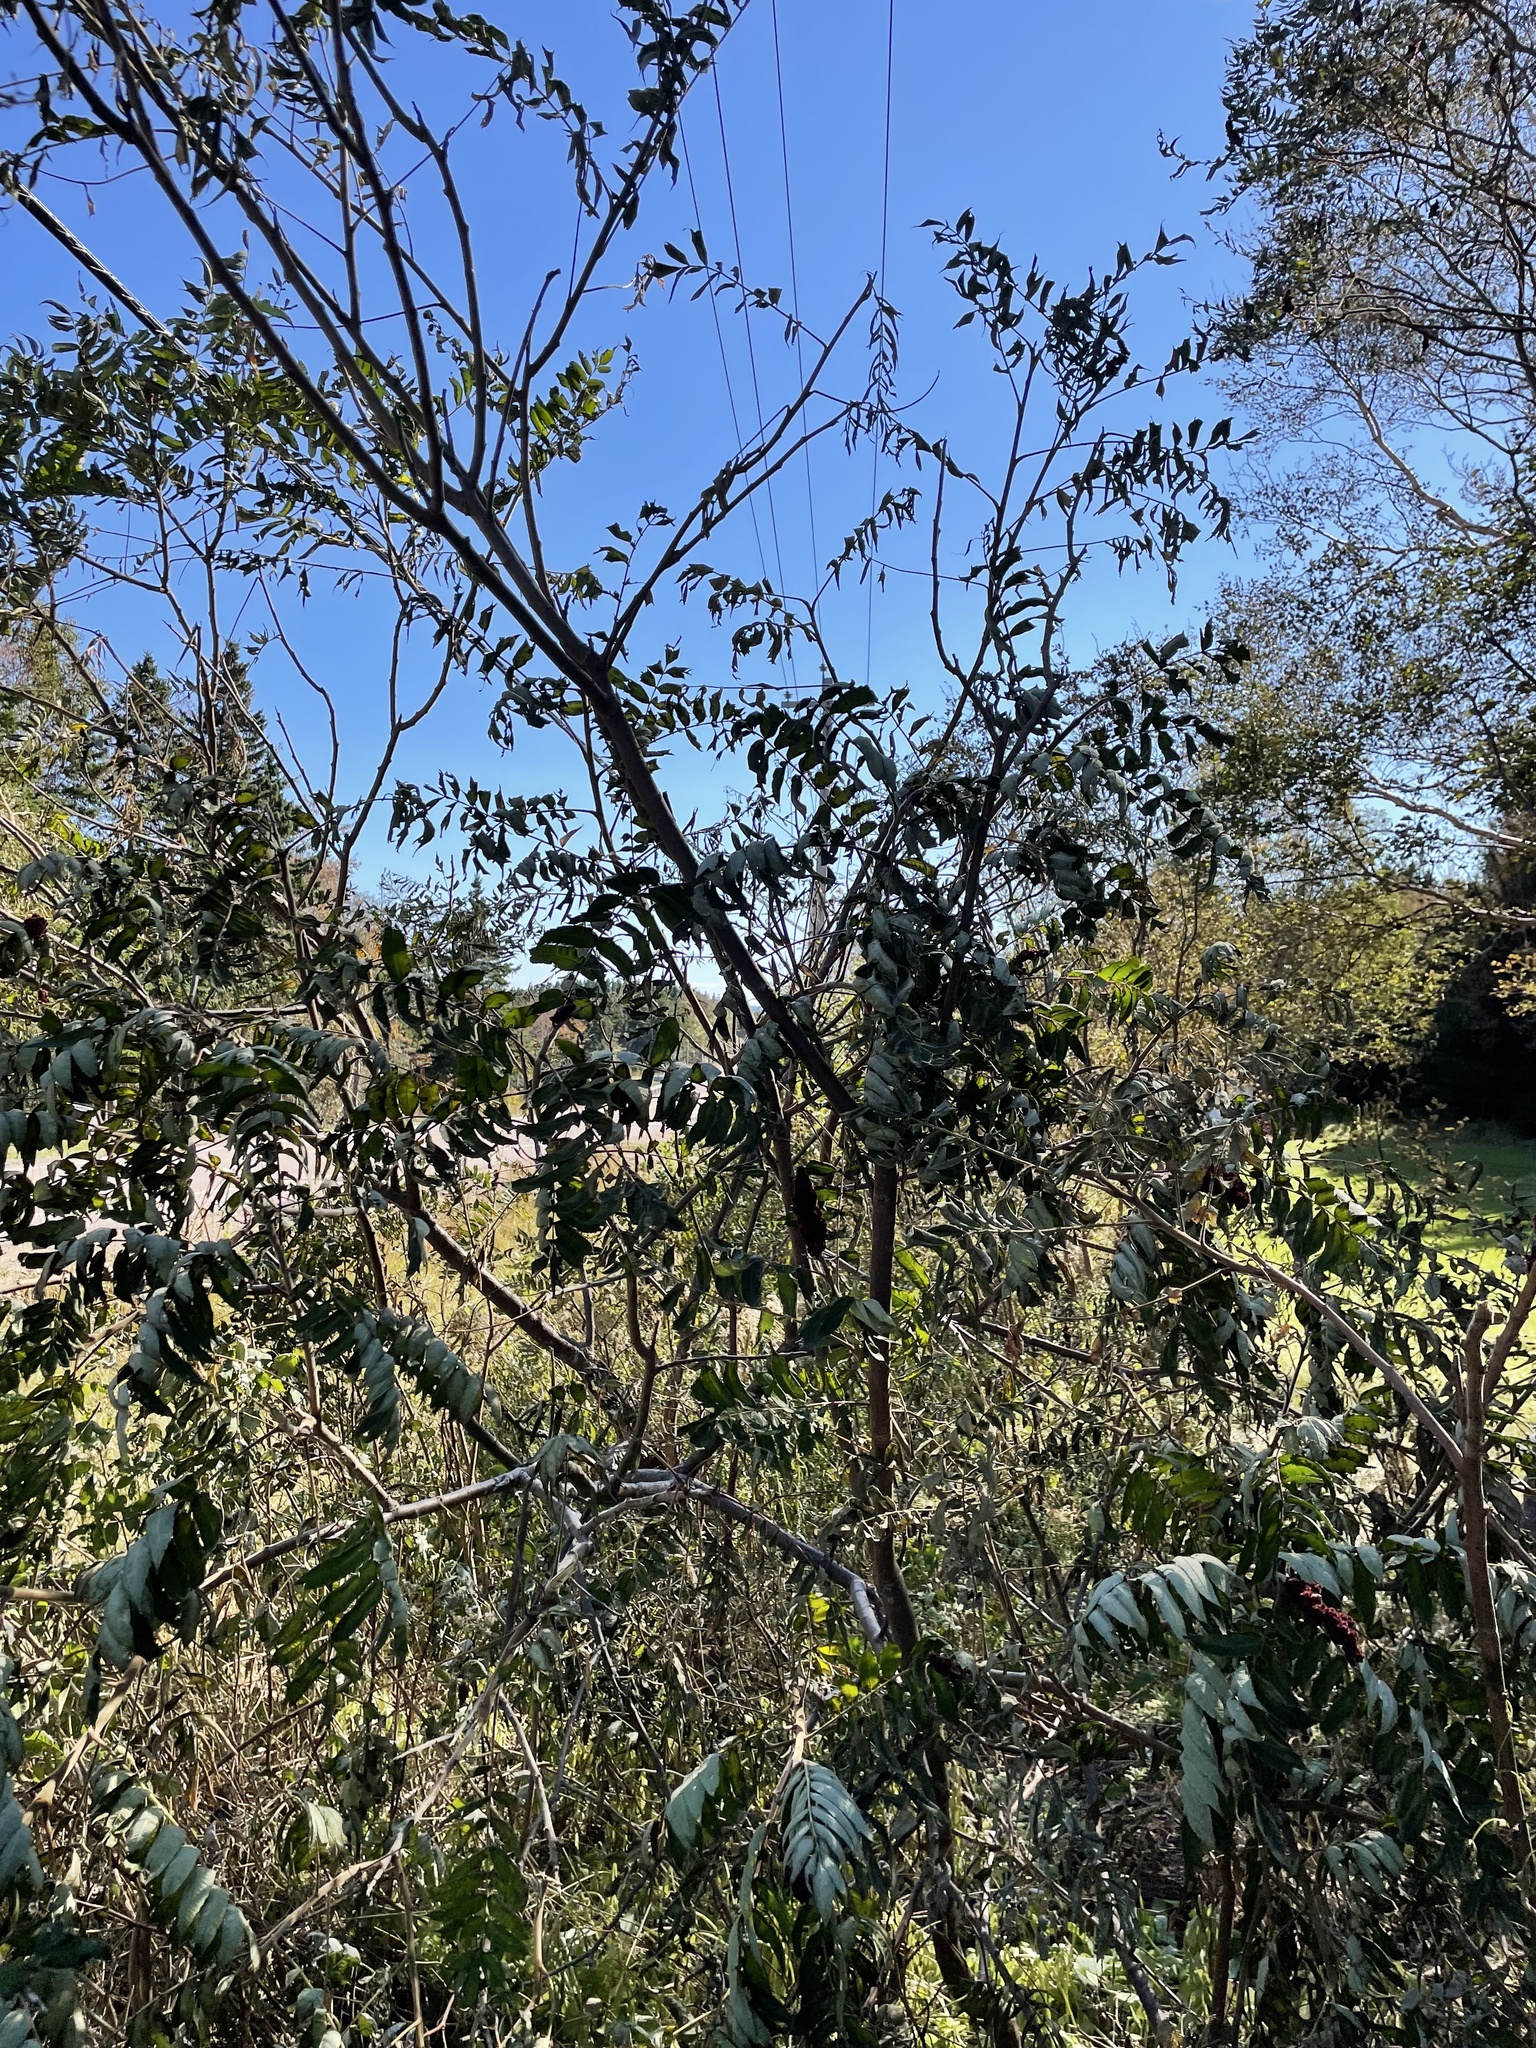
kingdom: Plantae
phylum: Tracheophyta
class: Magnoliopsida
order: Sapindales
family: Anacardiaceae
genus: Rhus
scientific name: Rhus typhina
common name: Staghorn sumac
